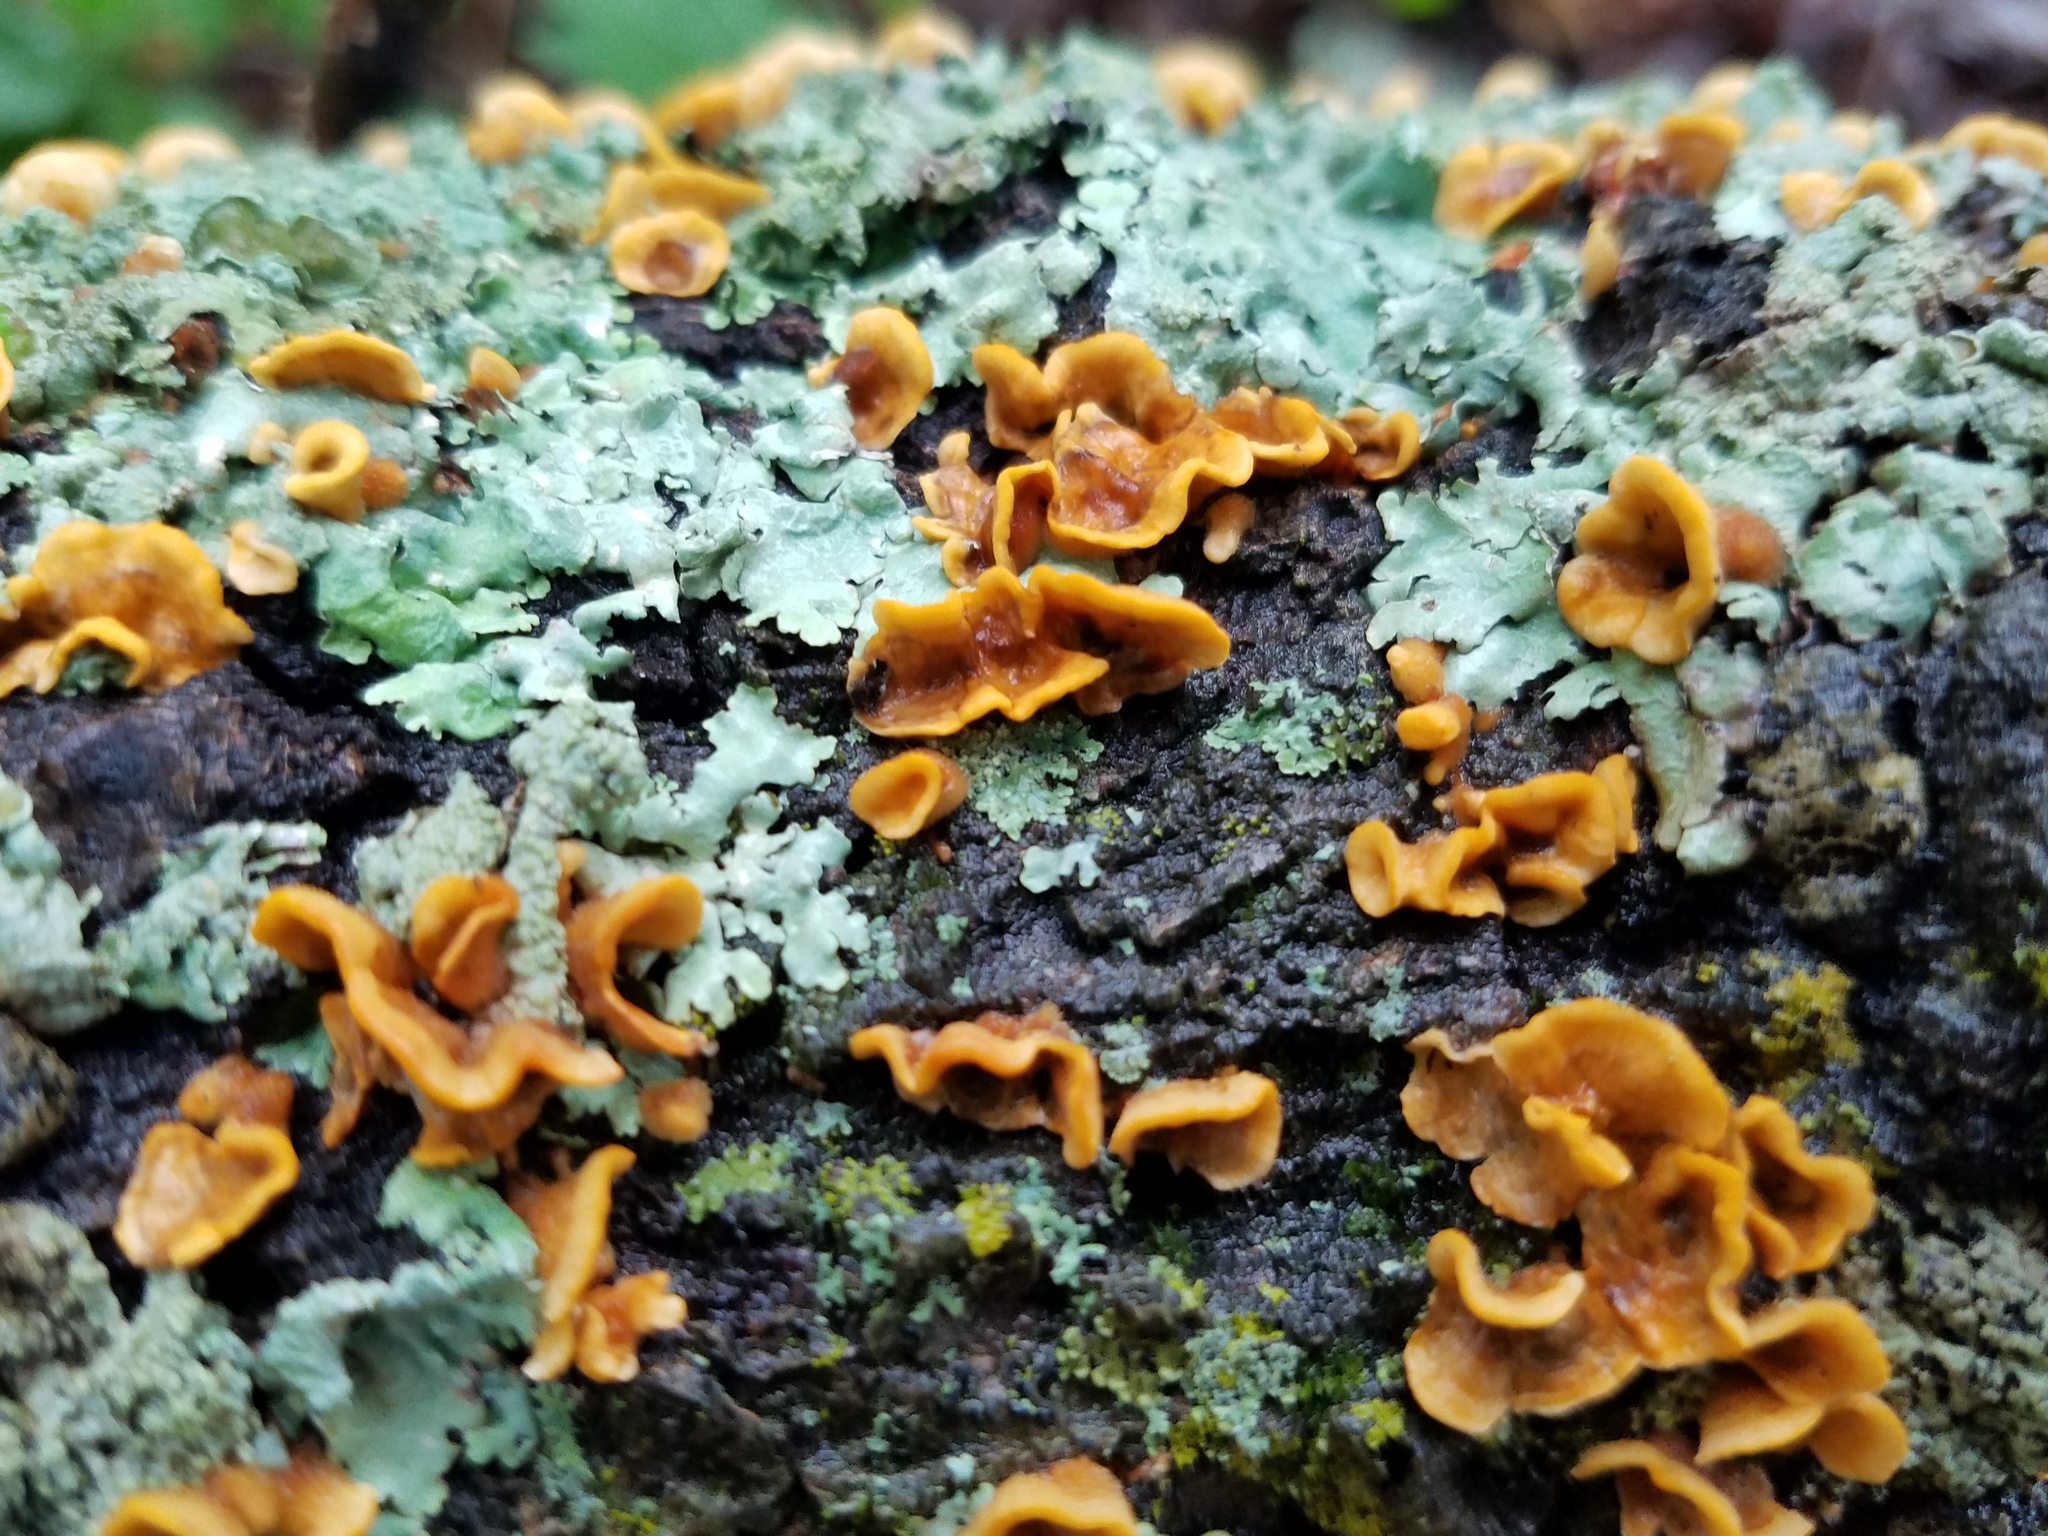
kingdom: Fungi
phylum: Basidiomycota
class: Agaricomycetes
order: Russulales
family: Stereaceae
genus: Stereum
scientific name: Stereum complicatum
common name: Crowded parchment
